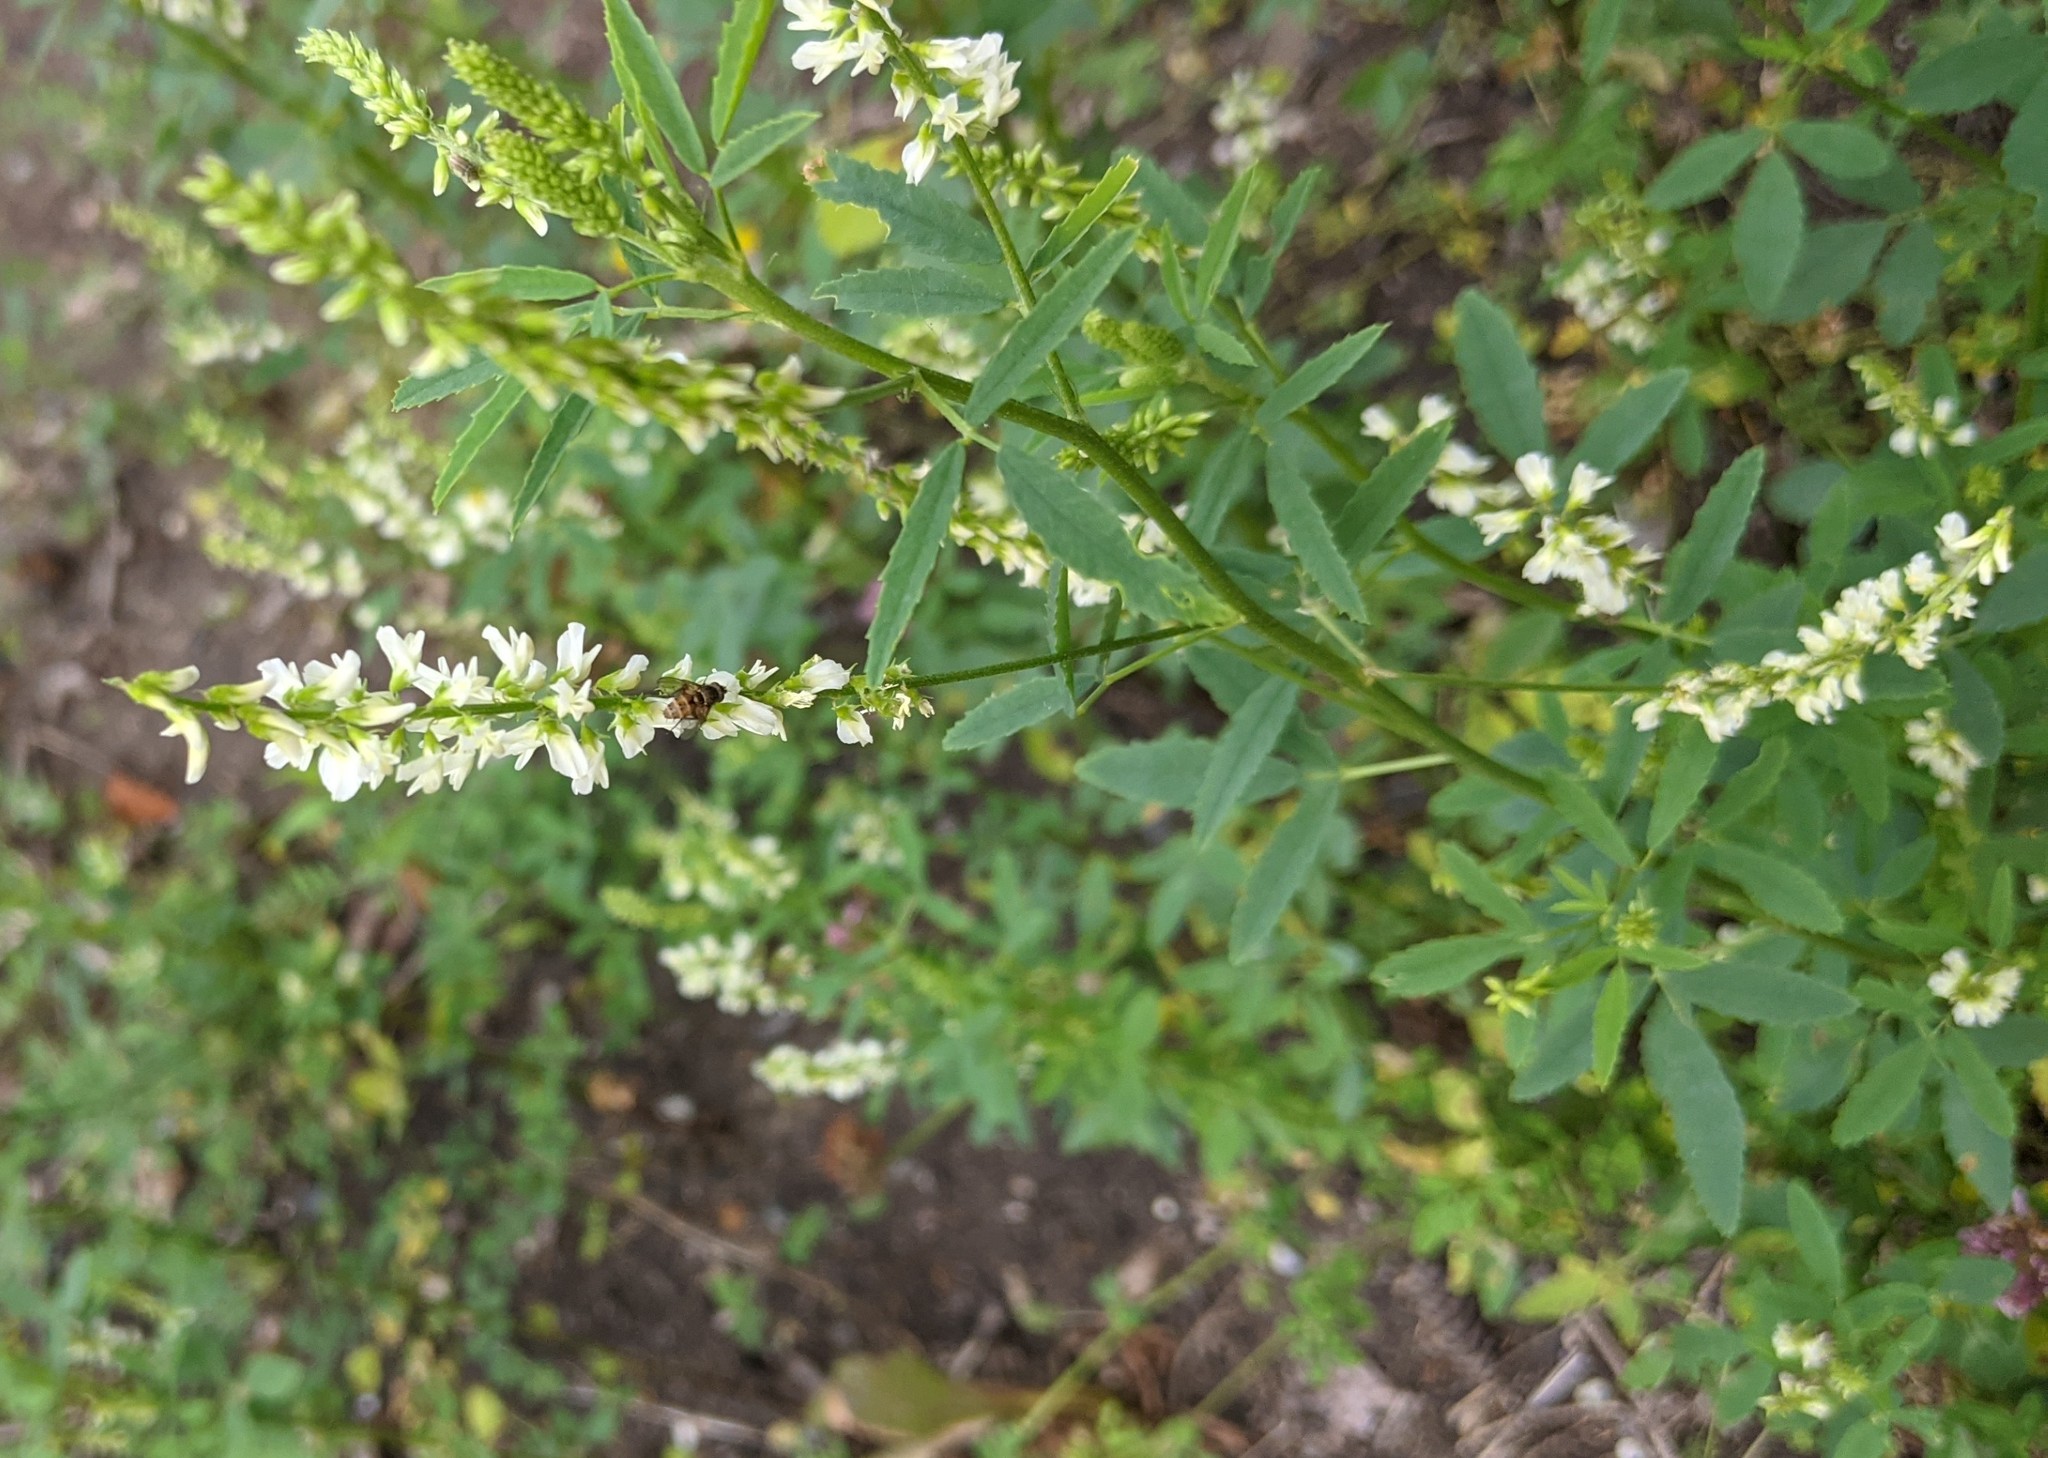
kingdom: Plantae
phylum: Tracheophyta
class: Magnoliopsida
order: Fabales
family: Fabaceae
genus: Melilotus
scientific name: Melilotus albus
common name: White melilot
